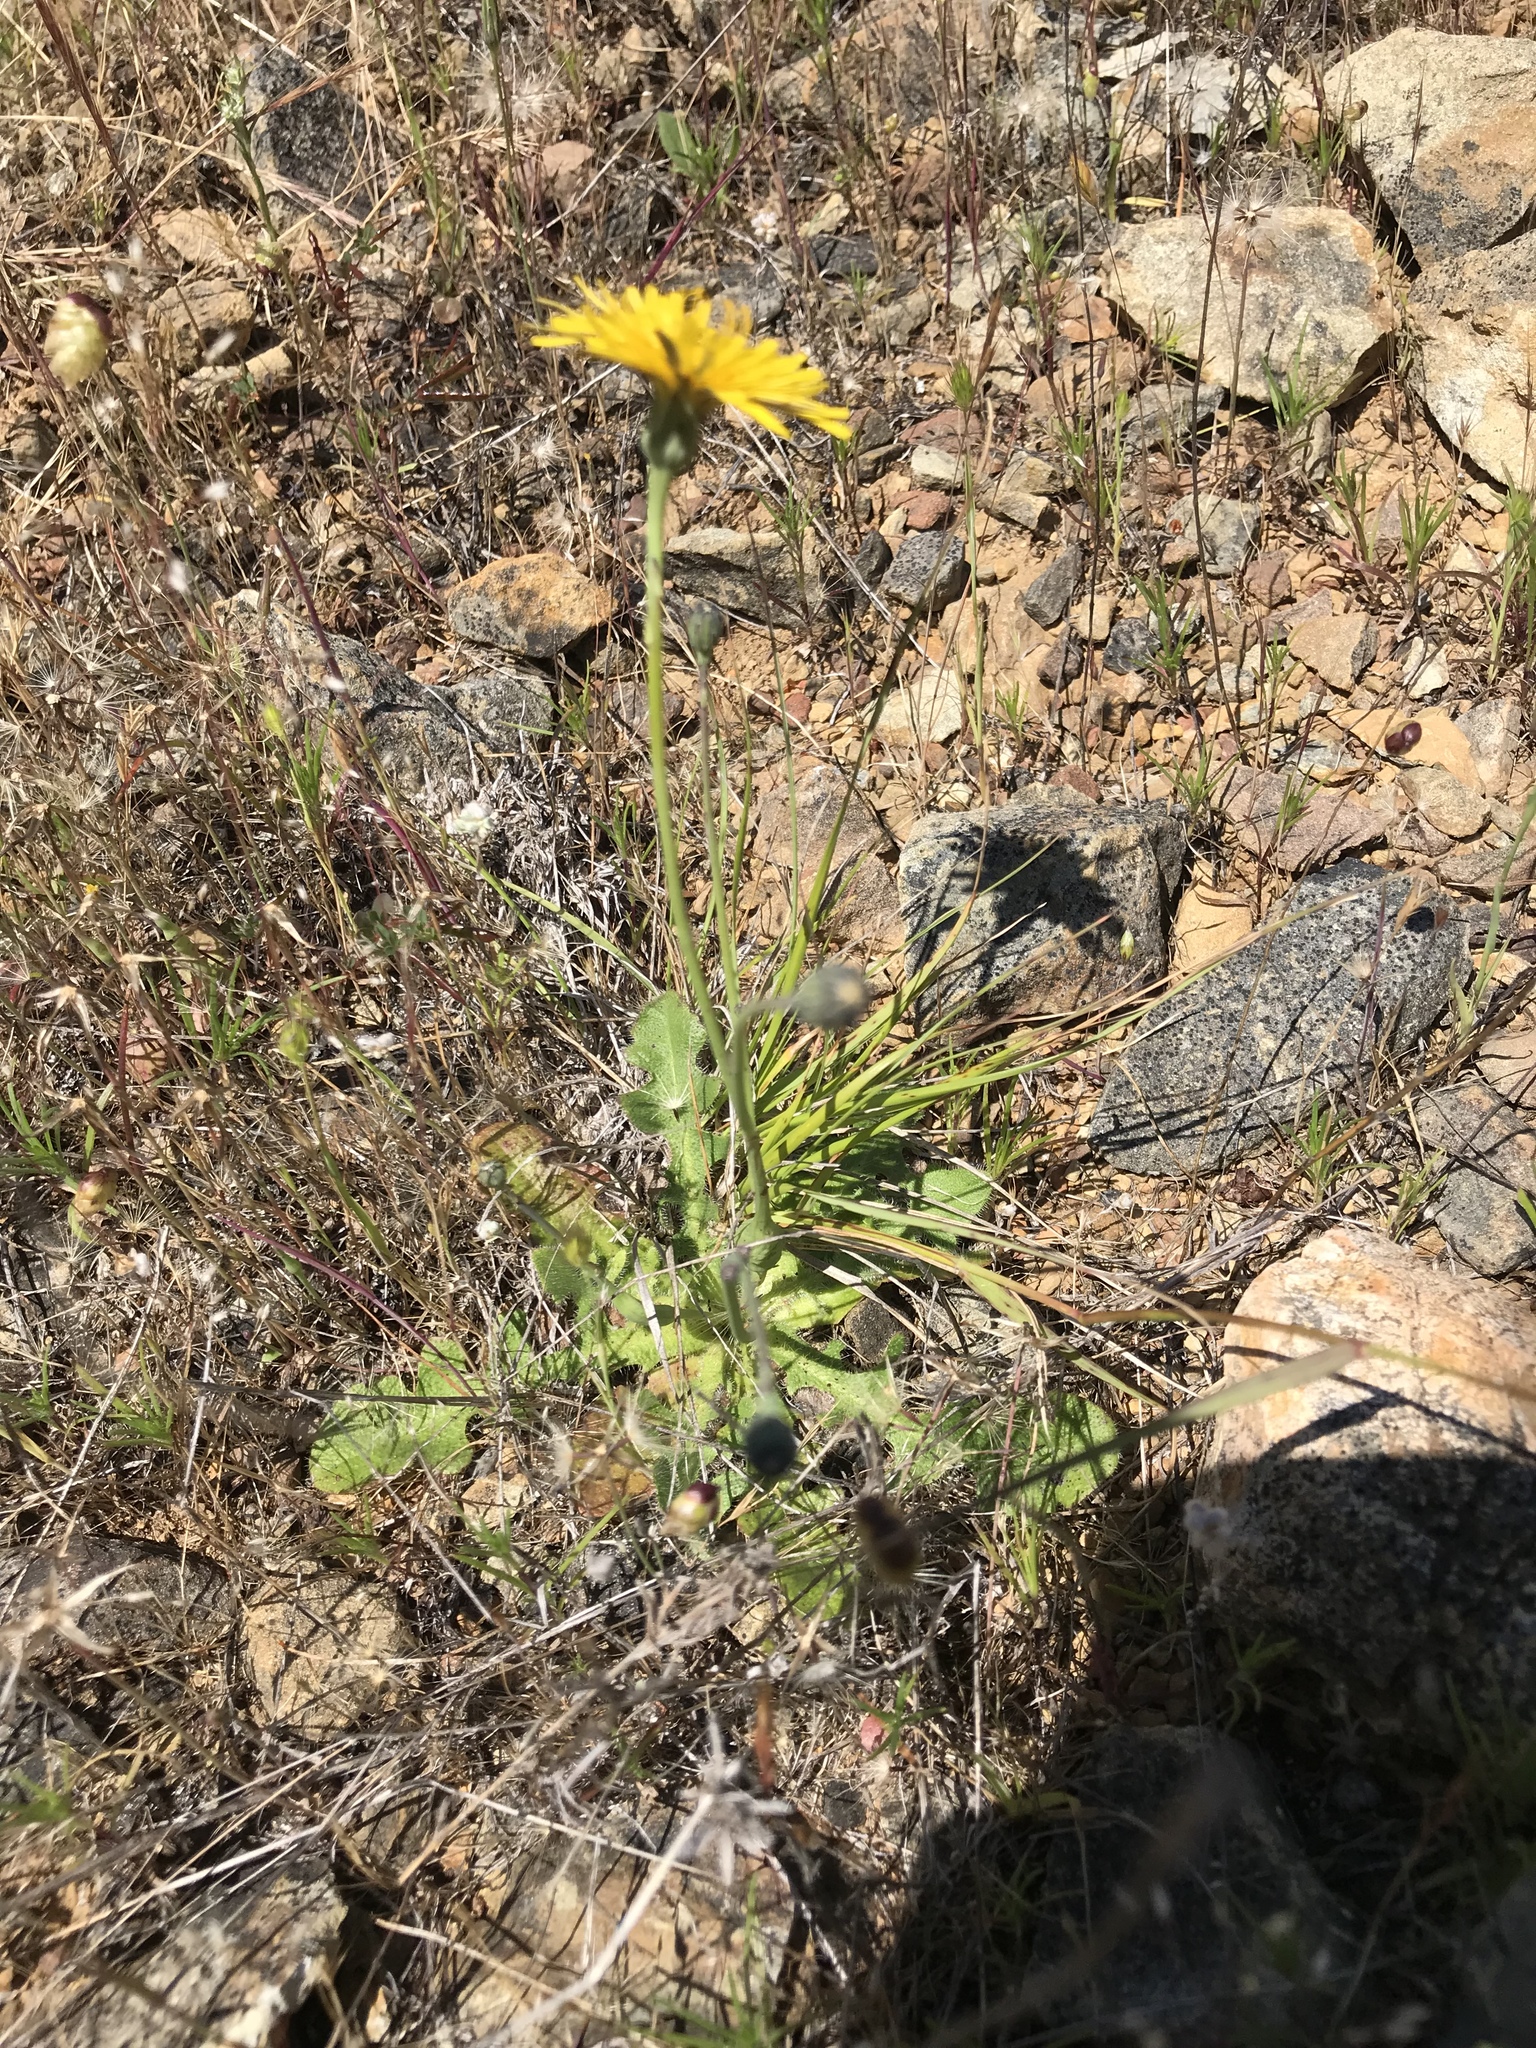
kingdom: Plantae
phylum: Tracheophyta
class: Magnoliopsida
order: Asterales
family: Asteraceae
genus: Hypochaeris
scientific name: Hypochaeris radicata
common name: Flatweed
